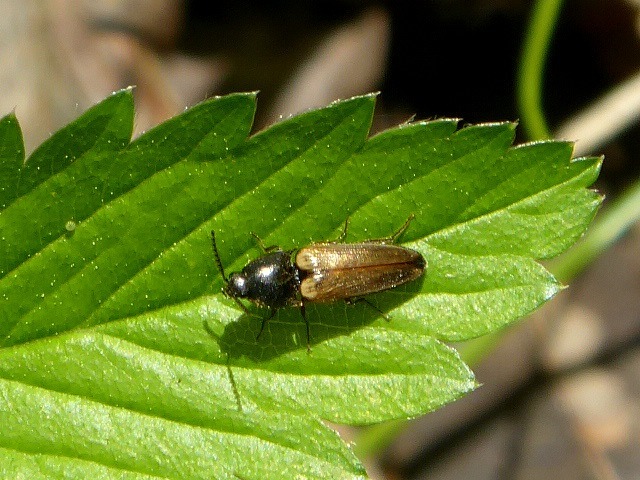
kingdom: Animalia
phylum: Arthropoda
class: Insecta
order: Coleoptera
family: Elateridae
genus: Ampedus
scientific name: Ampedus nigricollis
